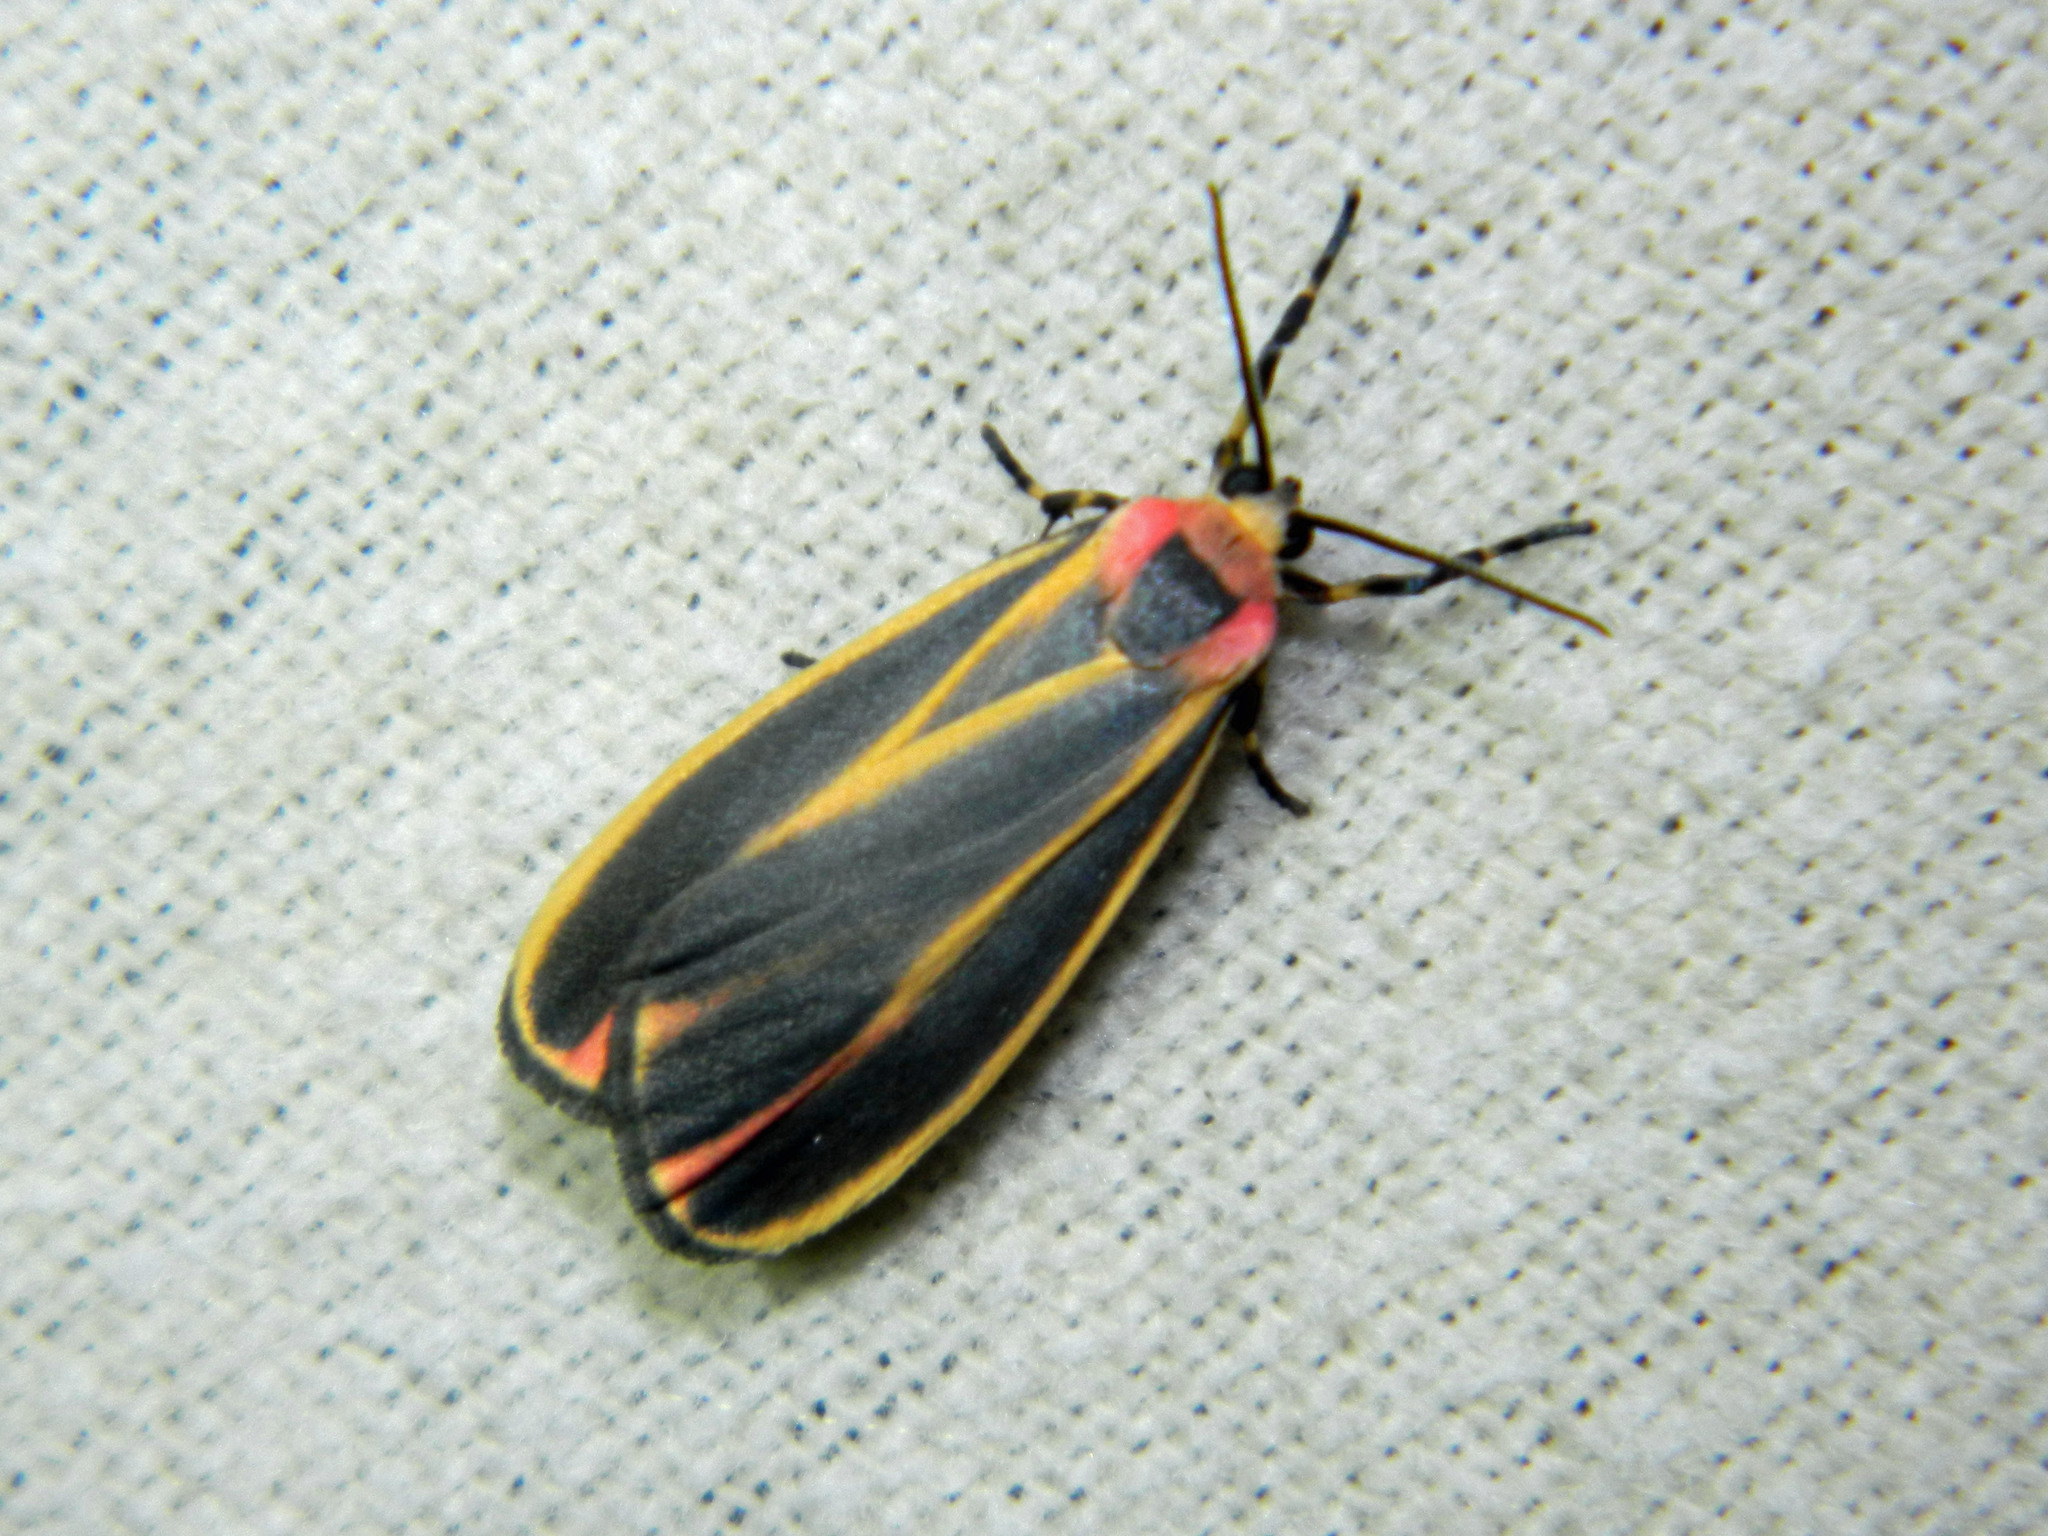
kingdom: Animalia
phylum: Arthropoda
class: Insecta
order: Lepidoptera
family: Erebidae
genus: Hypoprepia
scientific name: Hypoprepia fucosa
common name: Painted lichen moth
